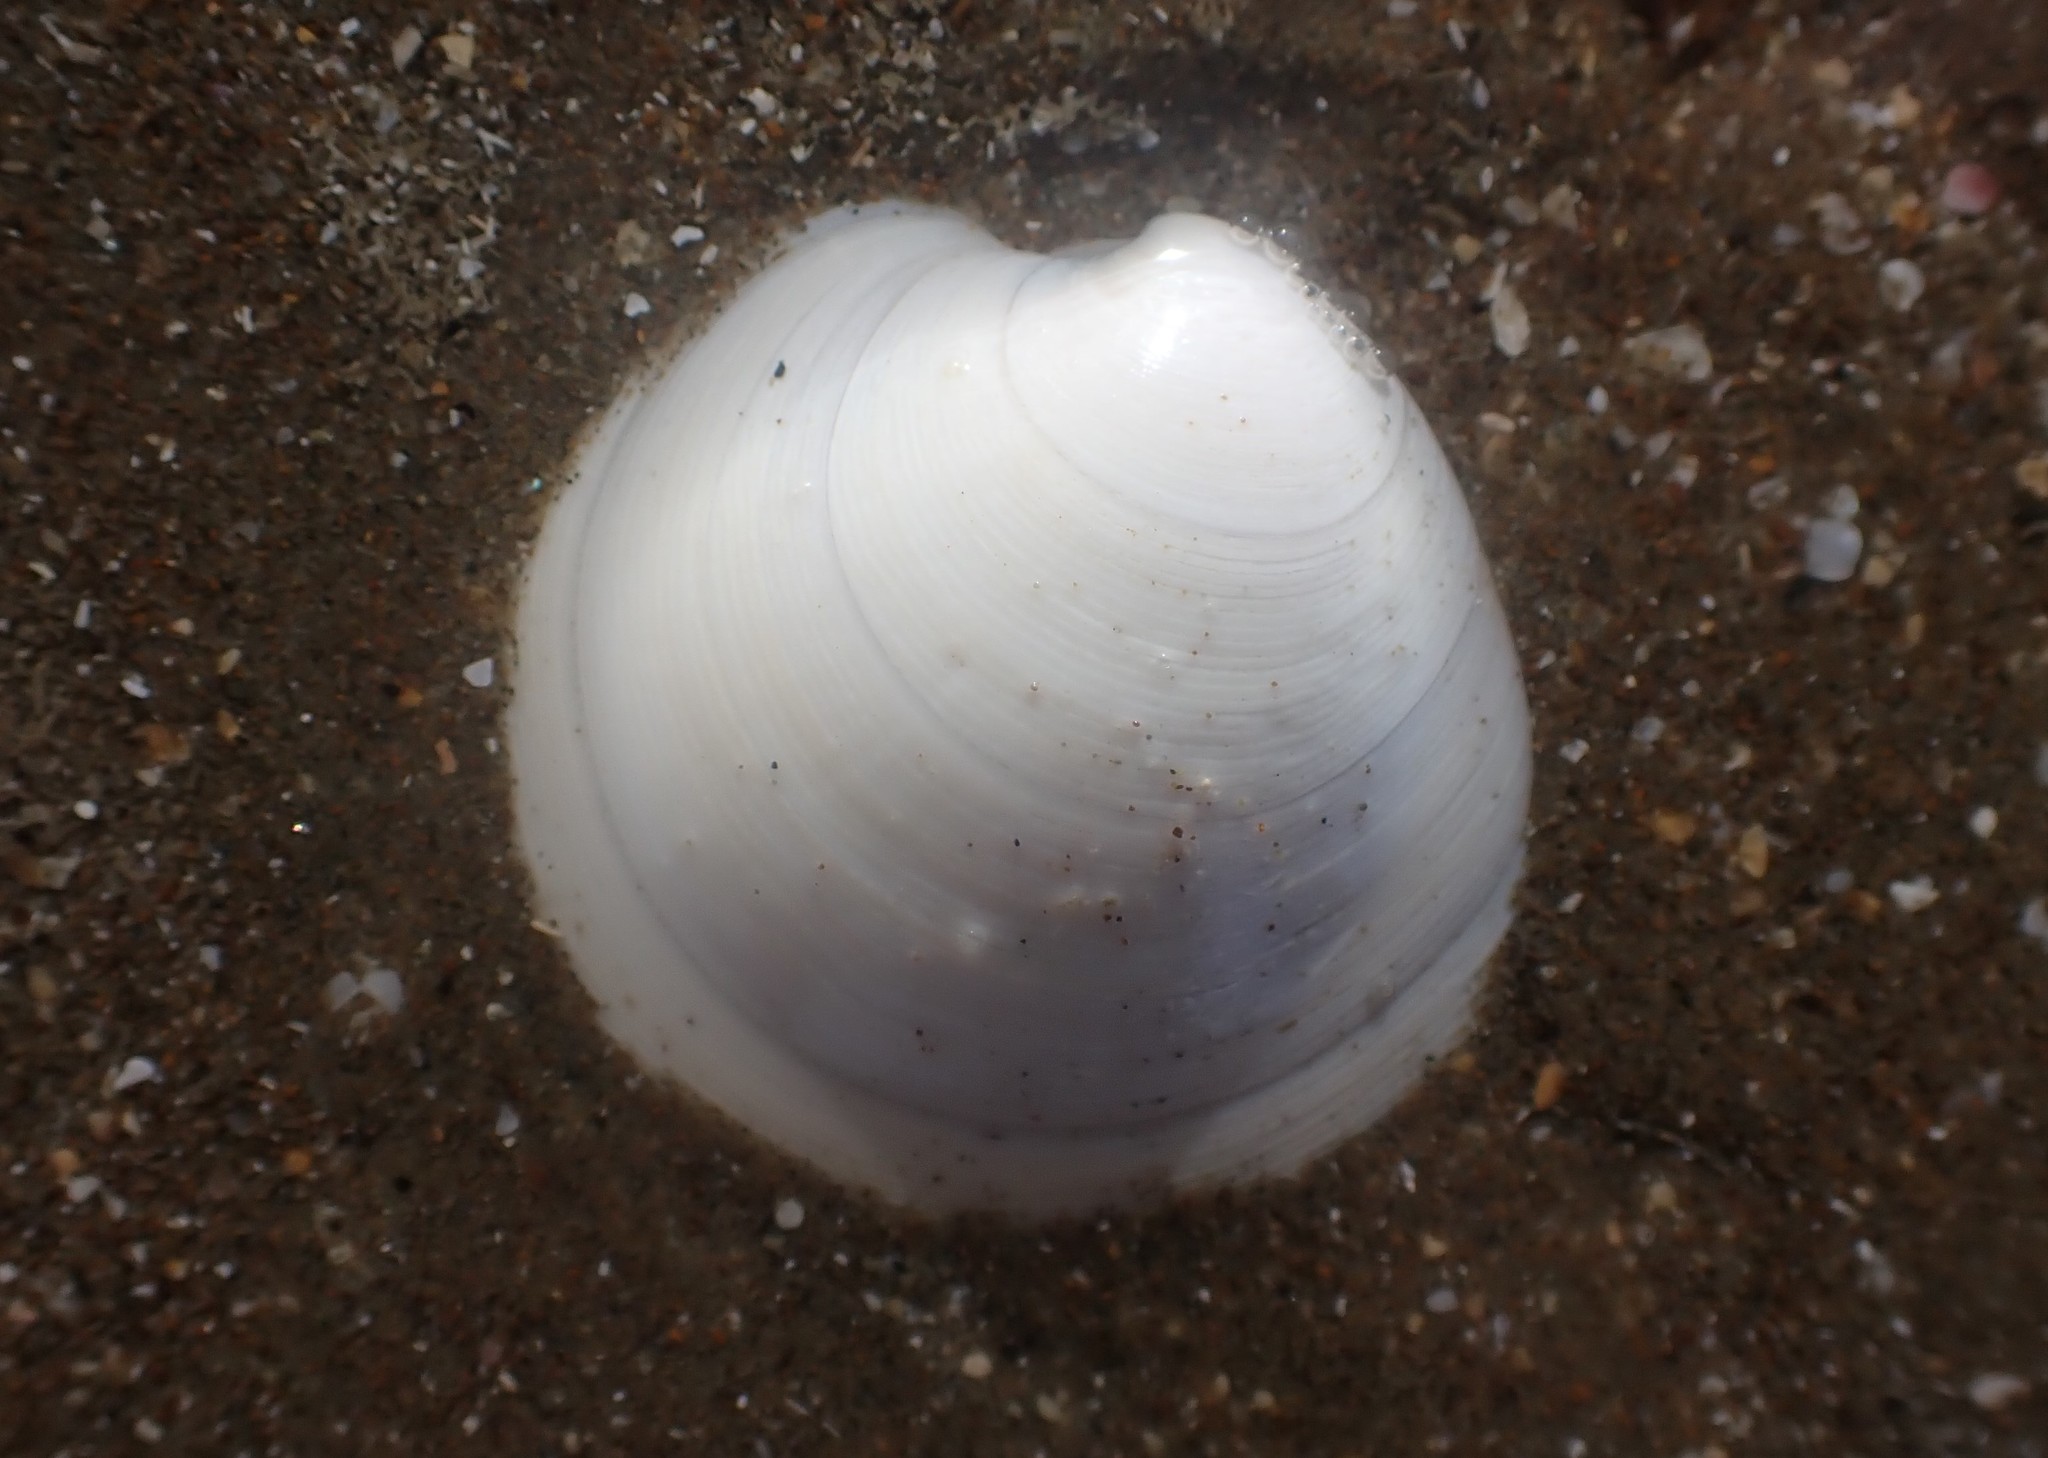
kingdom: Animalia
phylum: Mollusca
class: Bivalvia
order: Venerida
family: Veneridae
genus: Dosinia
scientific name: Dosinia subrosea
